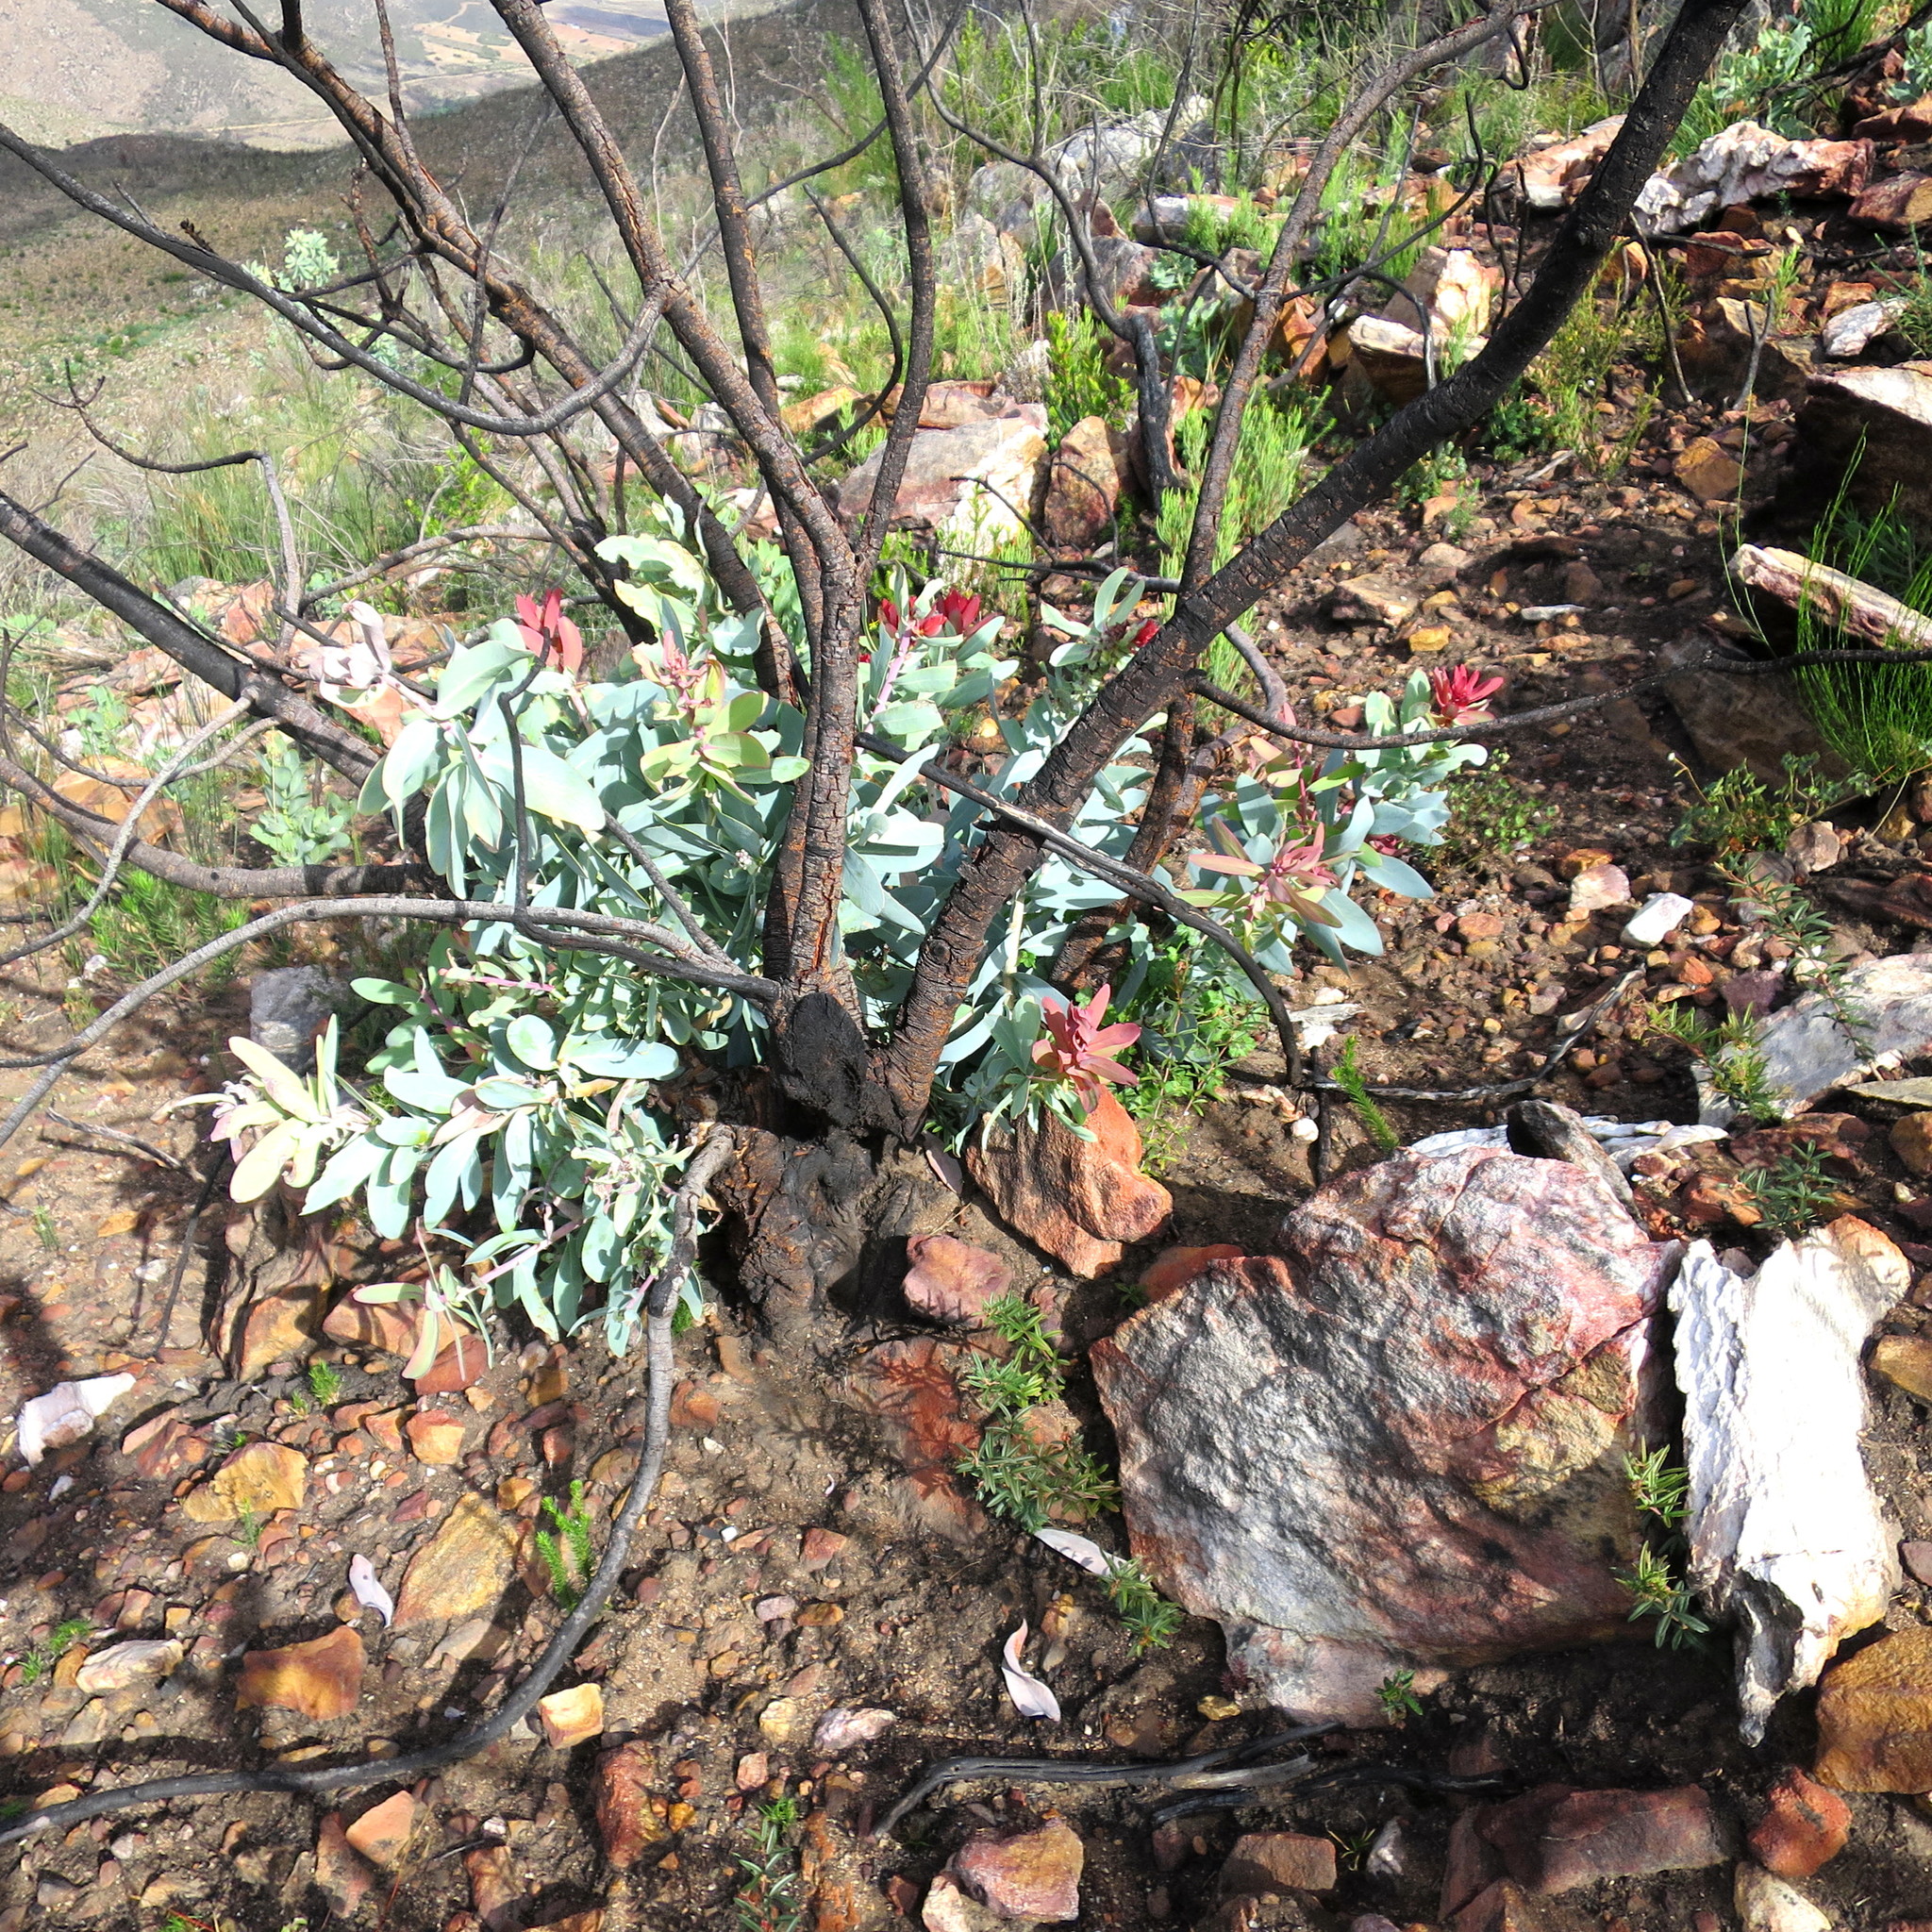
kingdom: Plantae
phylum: Tracheophyta
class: Magnoliopsida
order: Proteales
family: Proteaceae
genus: Protea
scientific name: Protea nitida
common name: Tree protea
